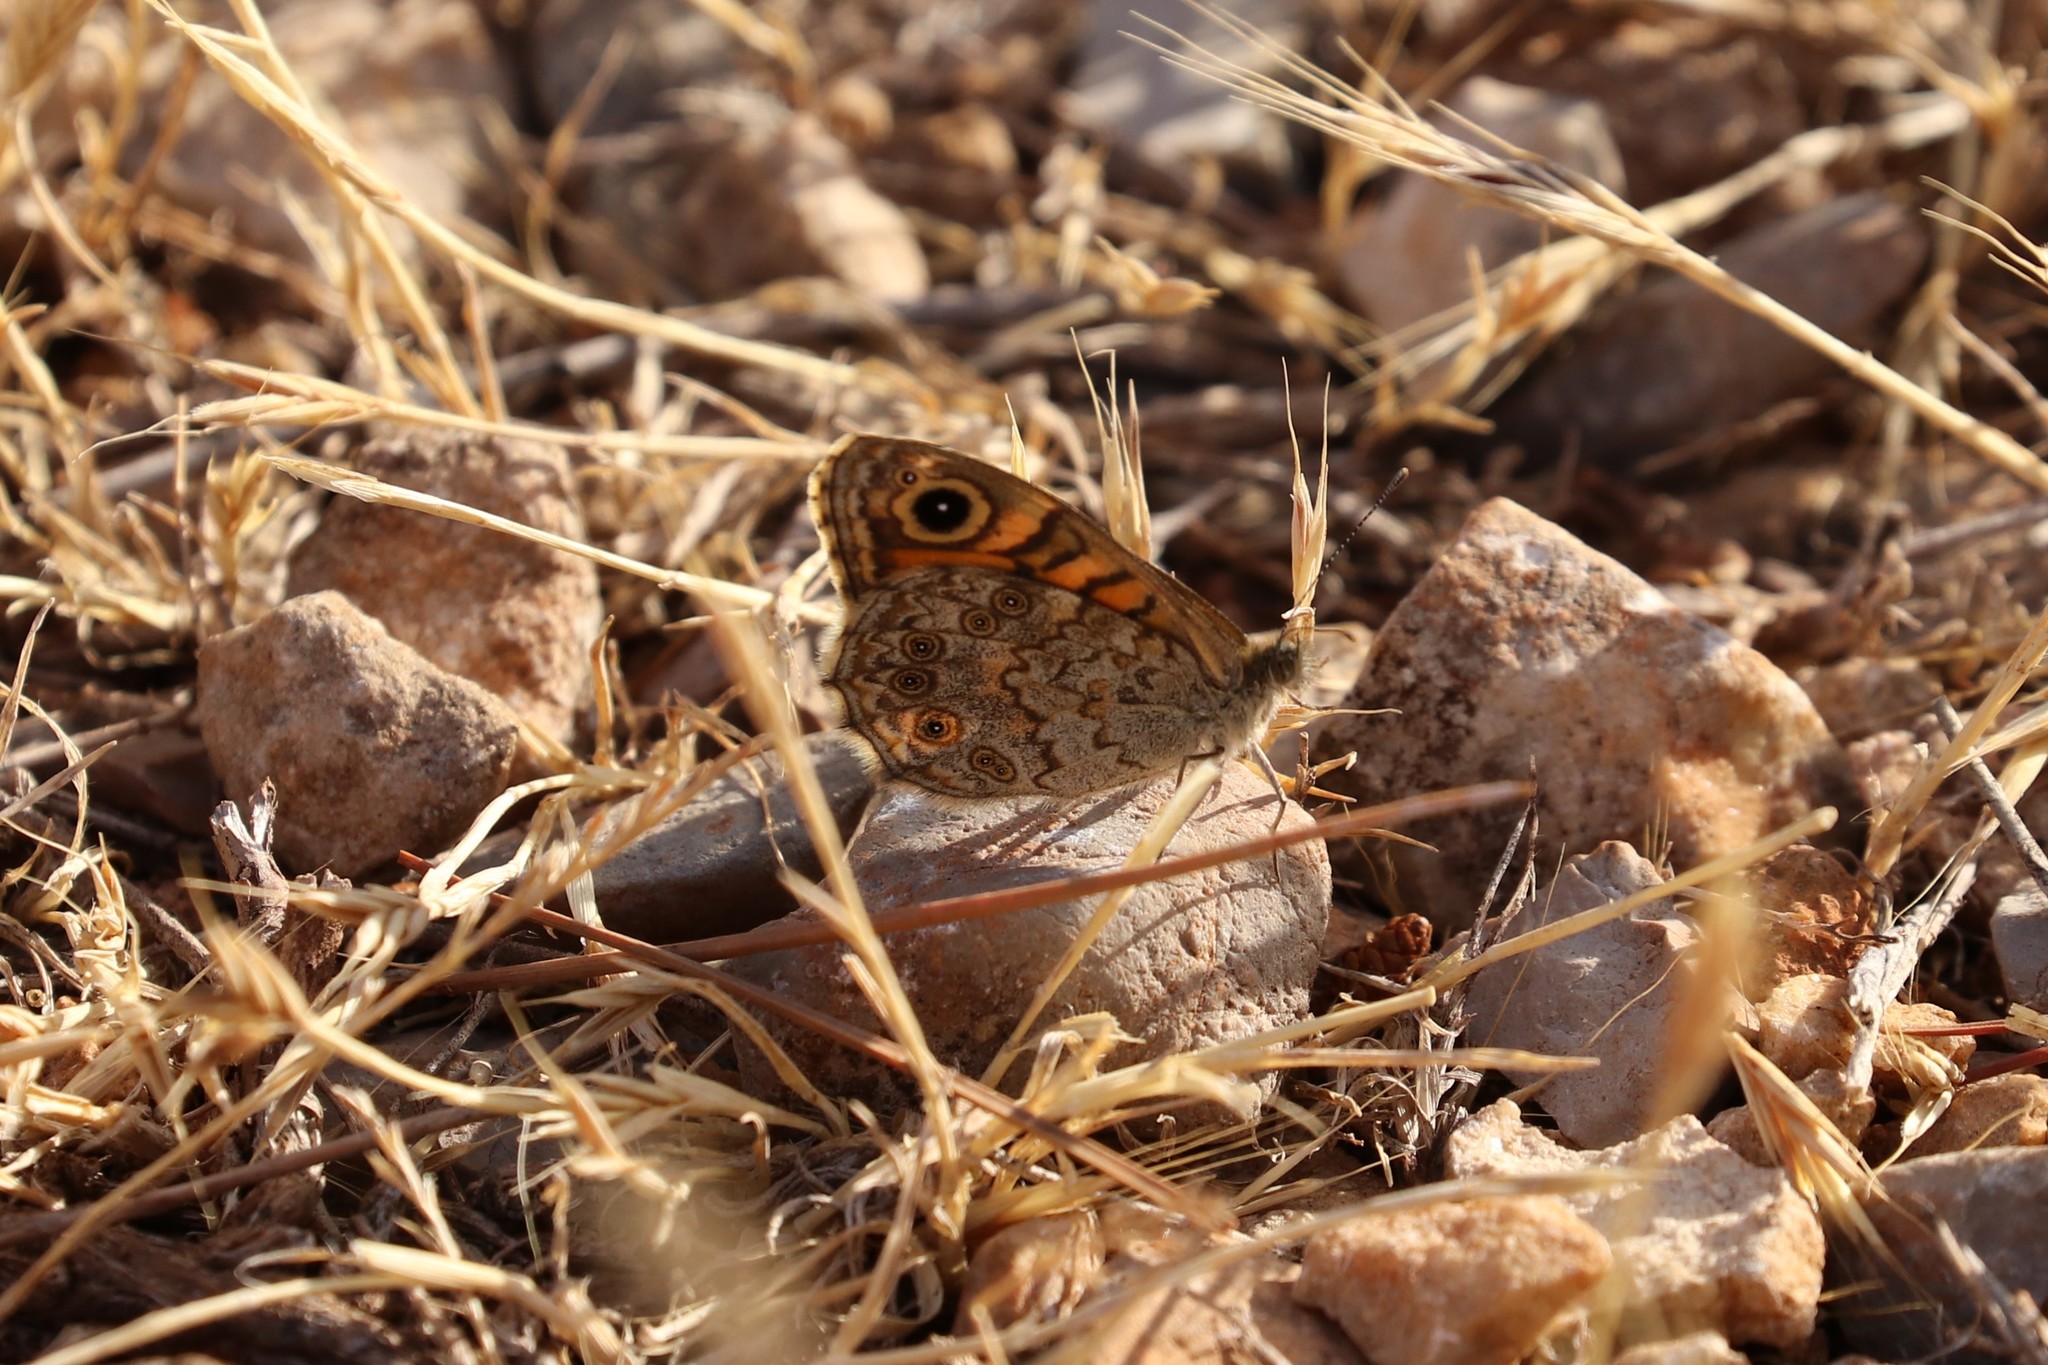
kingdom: Animalia
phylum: Arthropoda
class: Insecta
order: Lepidoptera
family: Nymphalidae
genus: Pararge
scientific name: Pararge Lasiommata megera
